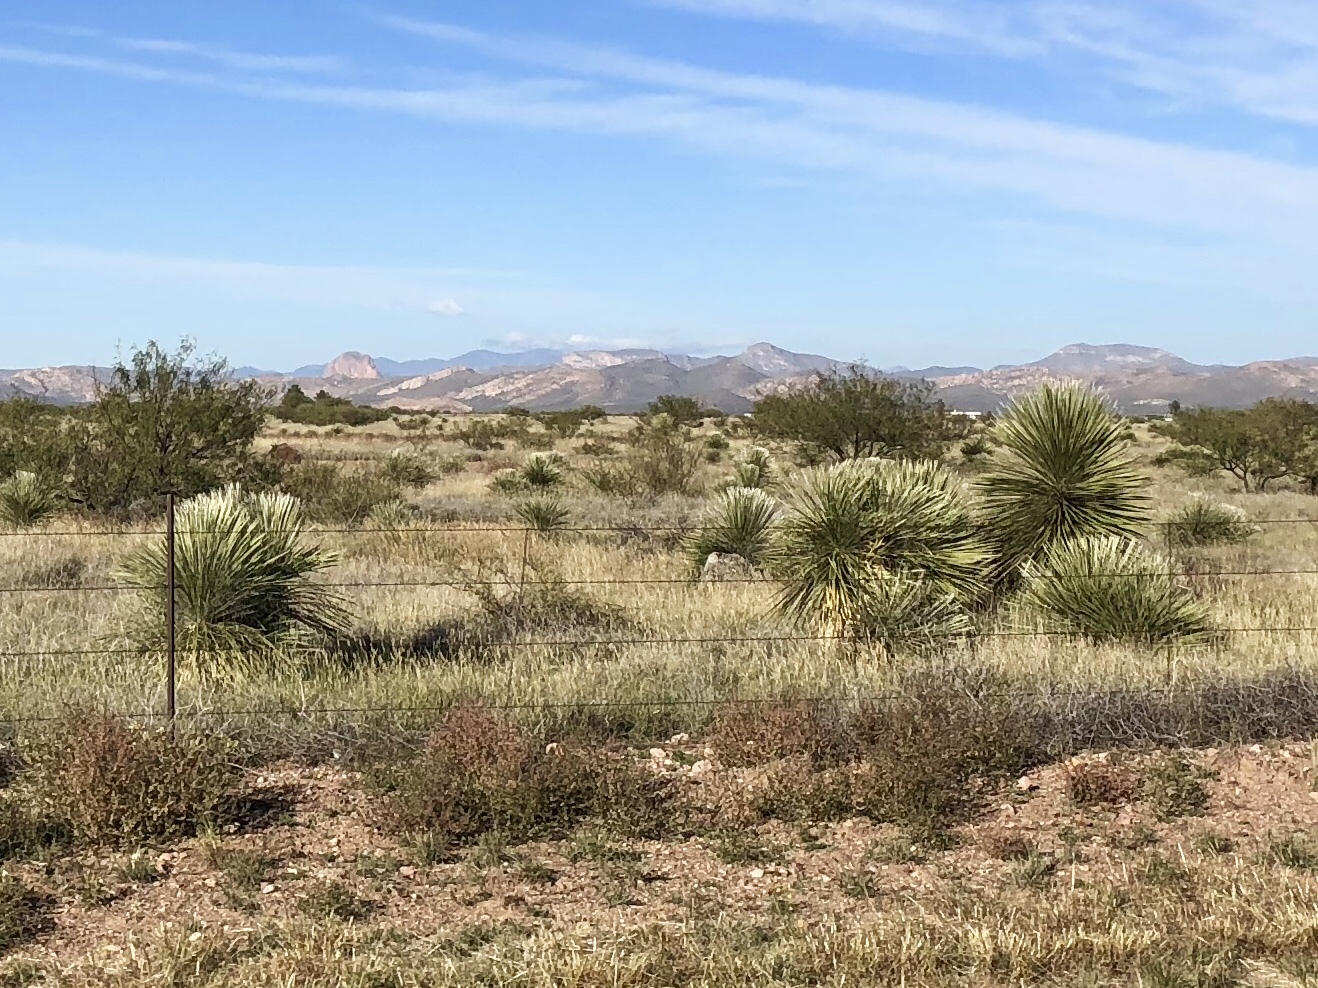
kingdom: Plantae
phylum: Tracheophyta
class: Liliopsida
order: Asparagales
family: Asparagaceae
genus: Yucca
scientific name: Yucca elata
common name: Palmella
